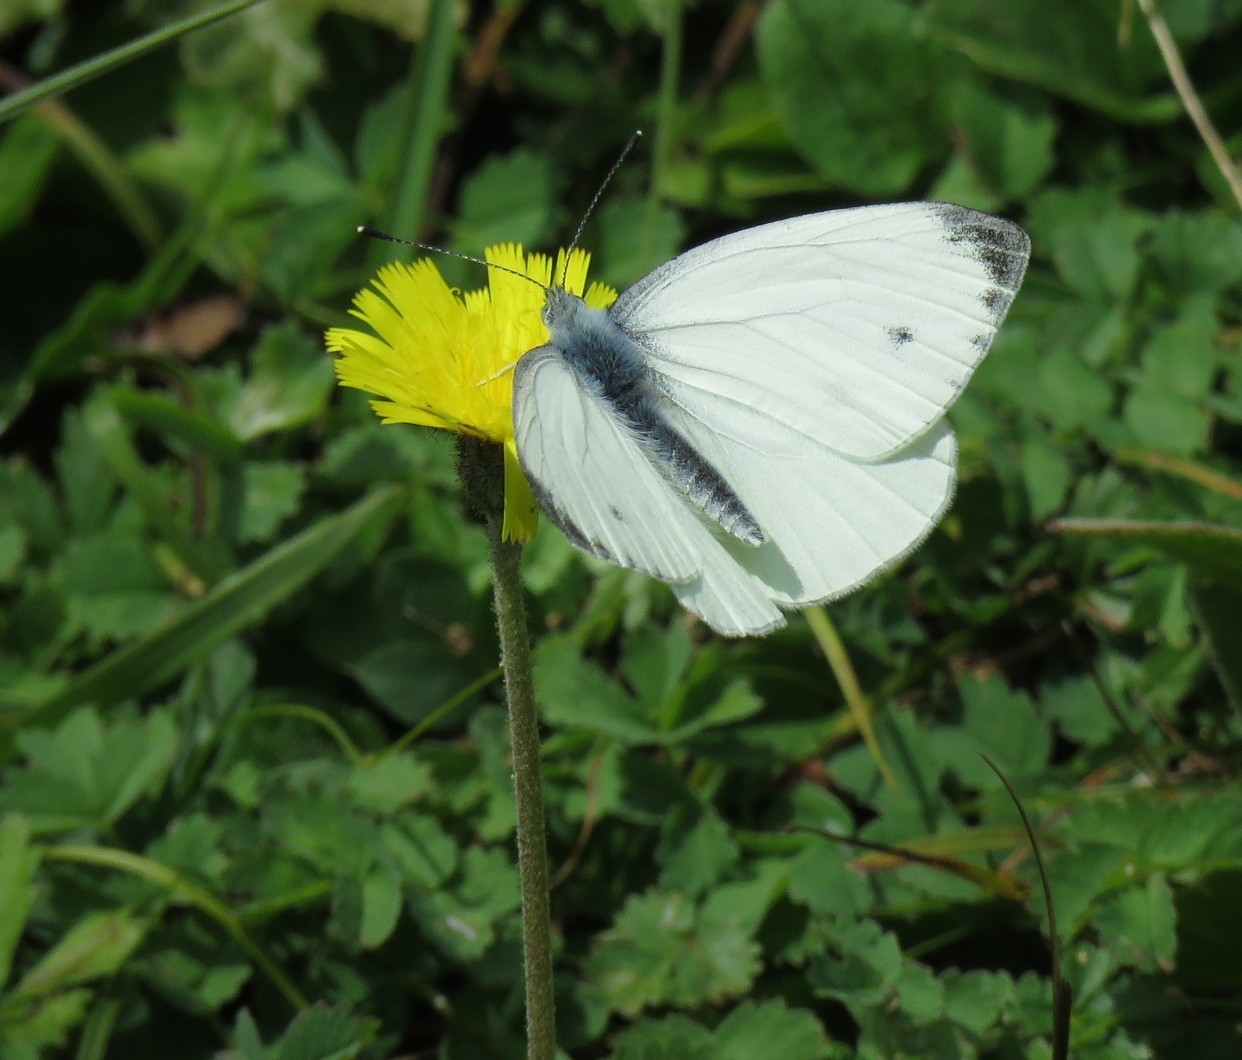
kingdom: Animalia
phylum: Arthropoda
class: Insecta
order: Lepidoptera
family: Pieridae
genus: Pieris
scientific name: Pieris napi
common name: Green-veined white
